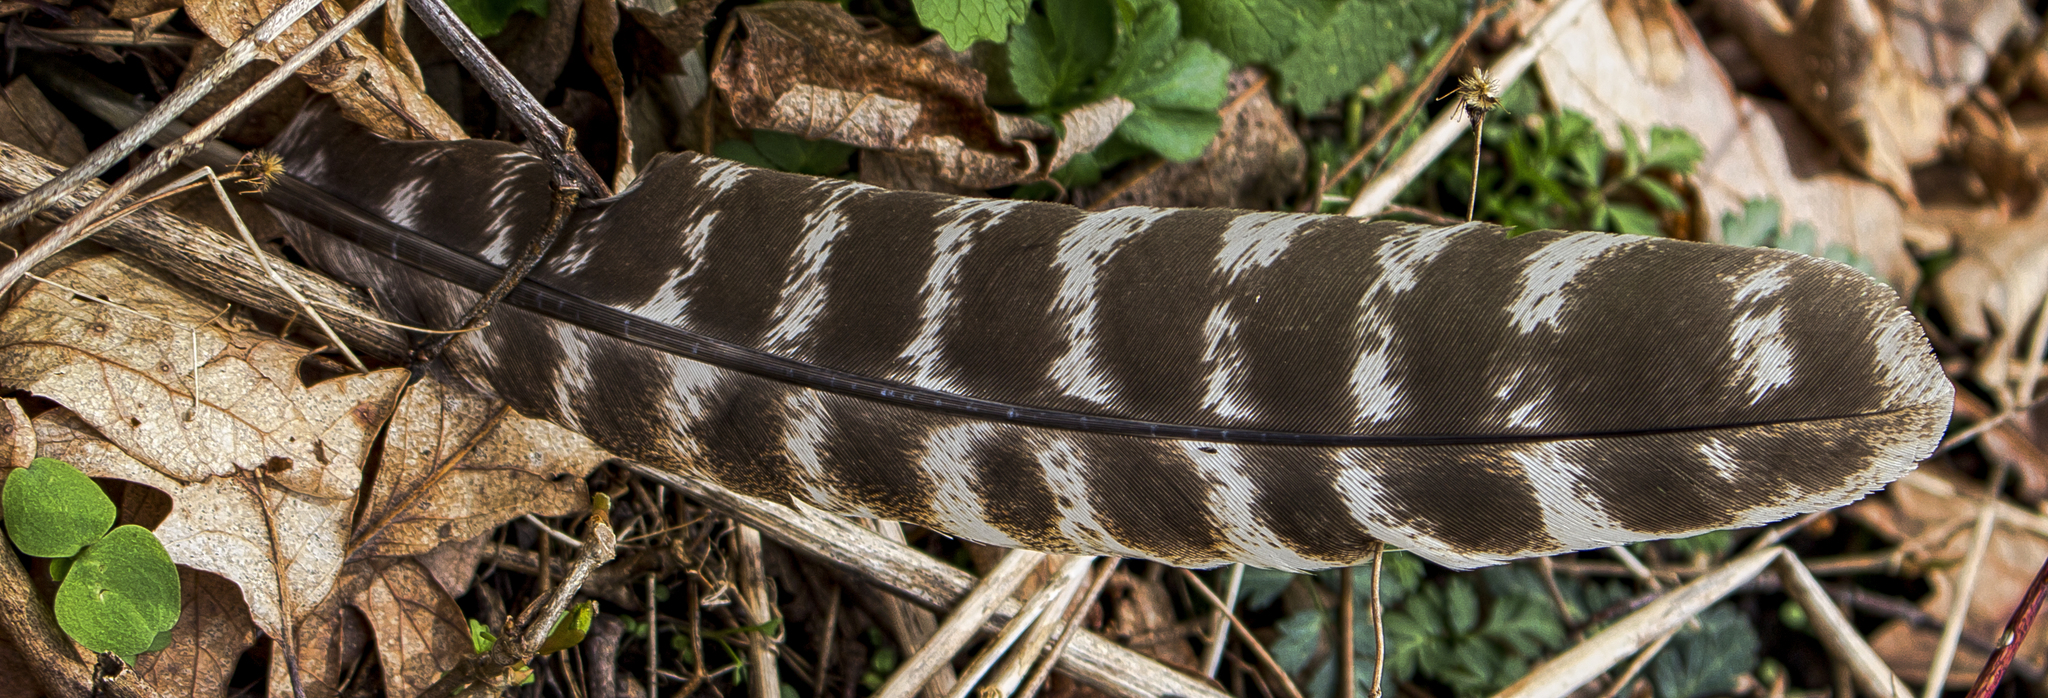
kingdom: Animalia
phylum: Chordata
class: Aves
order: Galliformes
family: Phasianidae
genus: Meleagris
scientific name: Meleagris gallopavo
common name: Wild turkey
